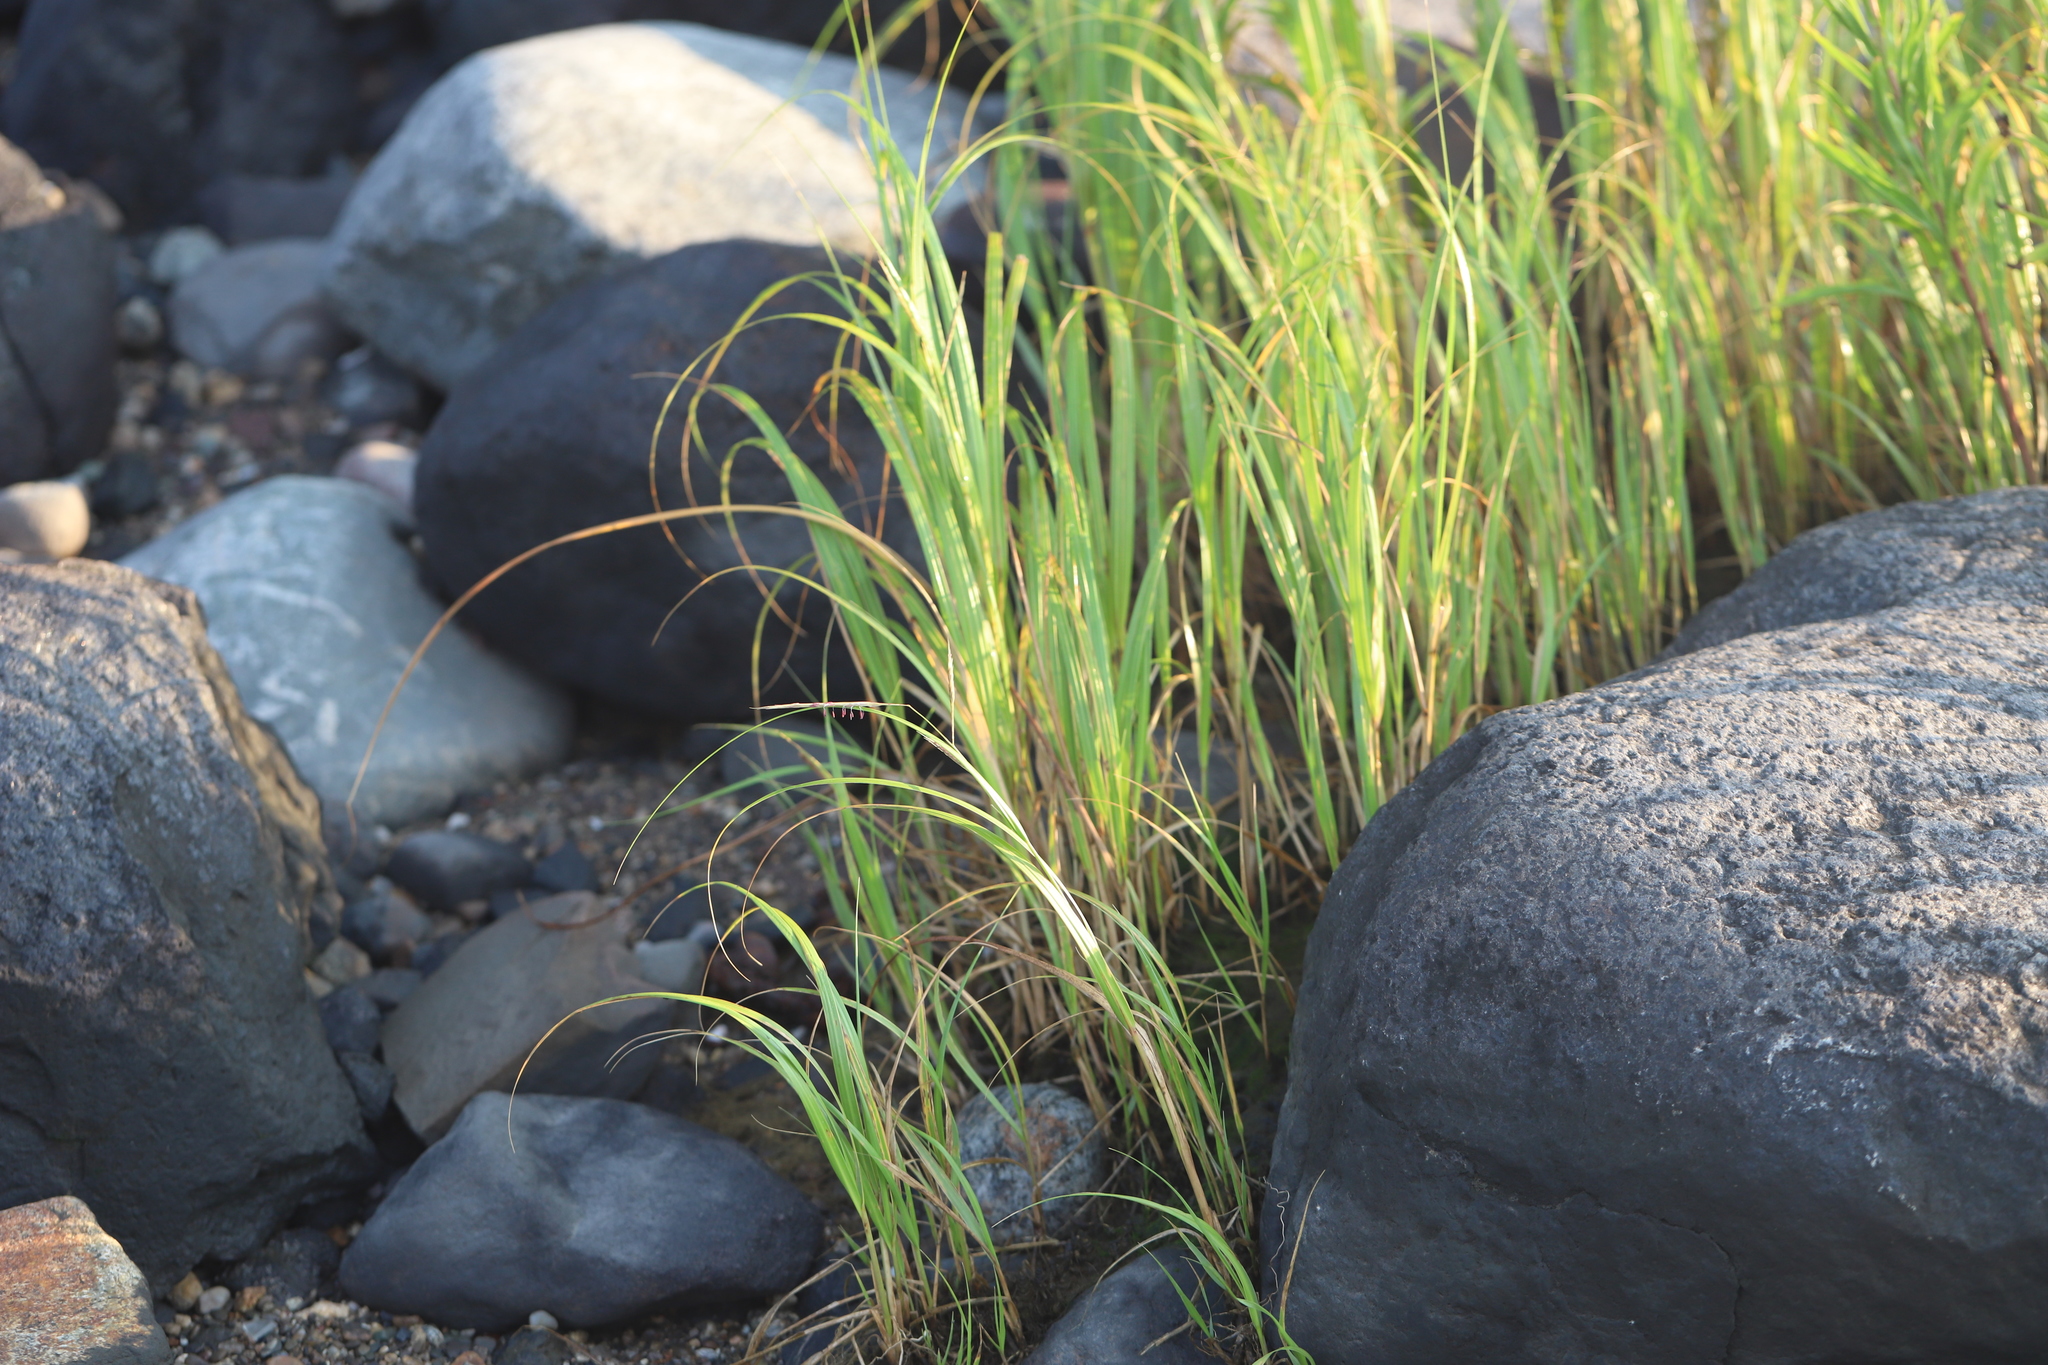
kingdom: Plantae
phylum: Tracheophyta
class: Liliopsida
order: Poales
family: Poaceae
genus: Sporobolus
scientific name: Sporobolus alterniflorus
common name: Atlantic cordgrass
